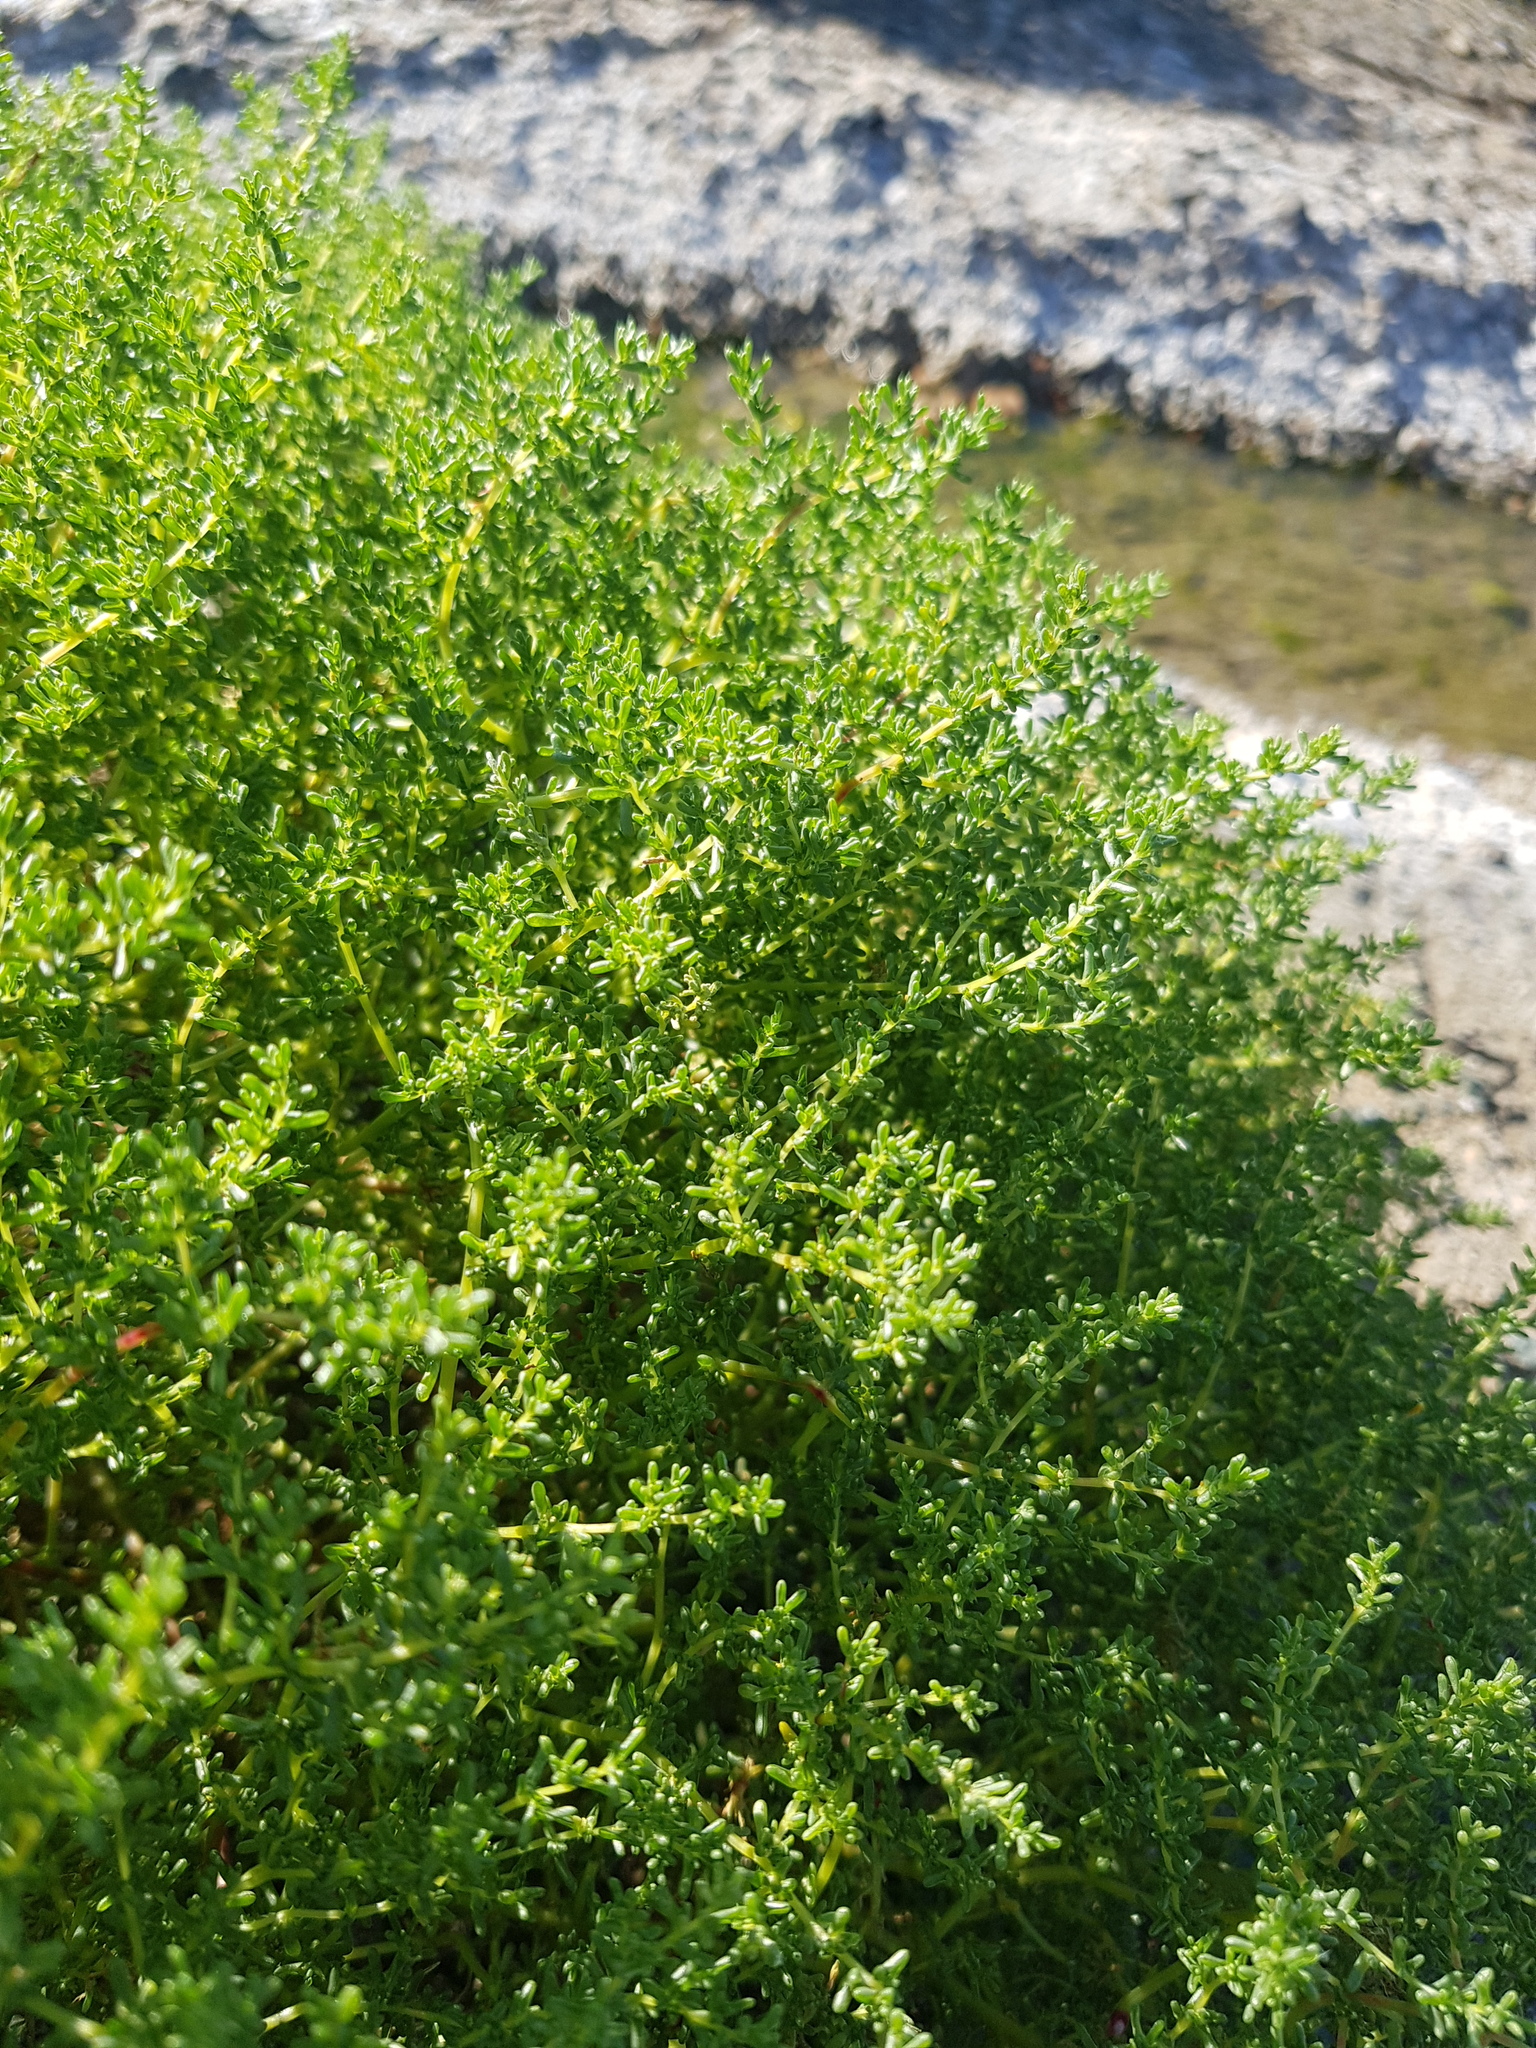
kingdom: Plantae
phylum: Tracheophyta
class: Magnoliopsida
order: Caryophyllales
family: Amaranthaceae
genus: Halogeton
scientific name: Halogeton arachnoides
